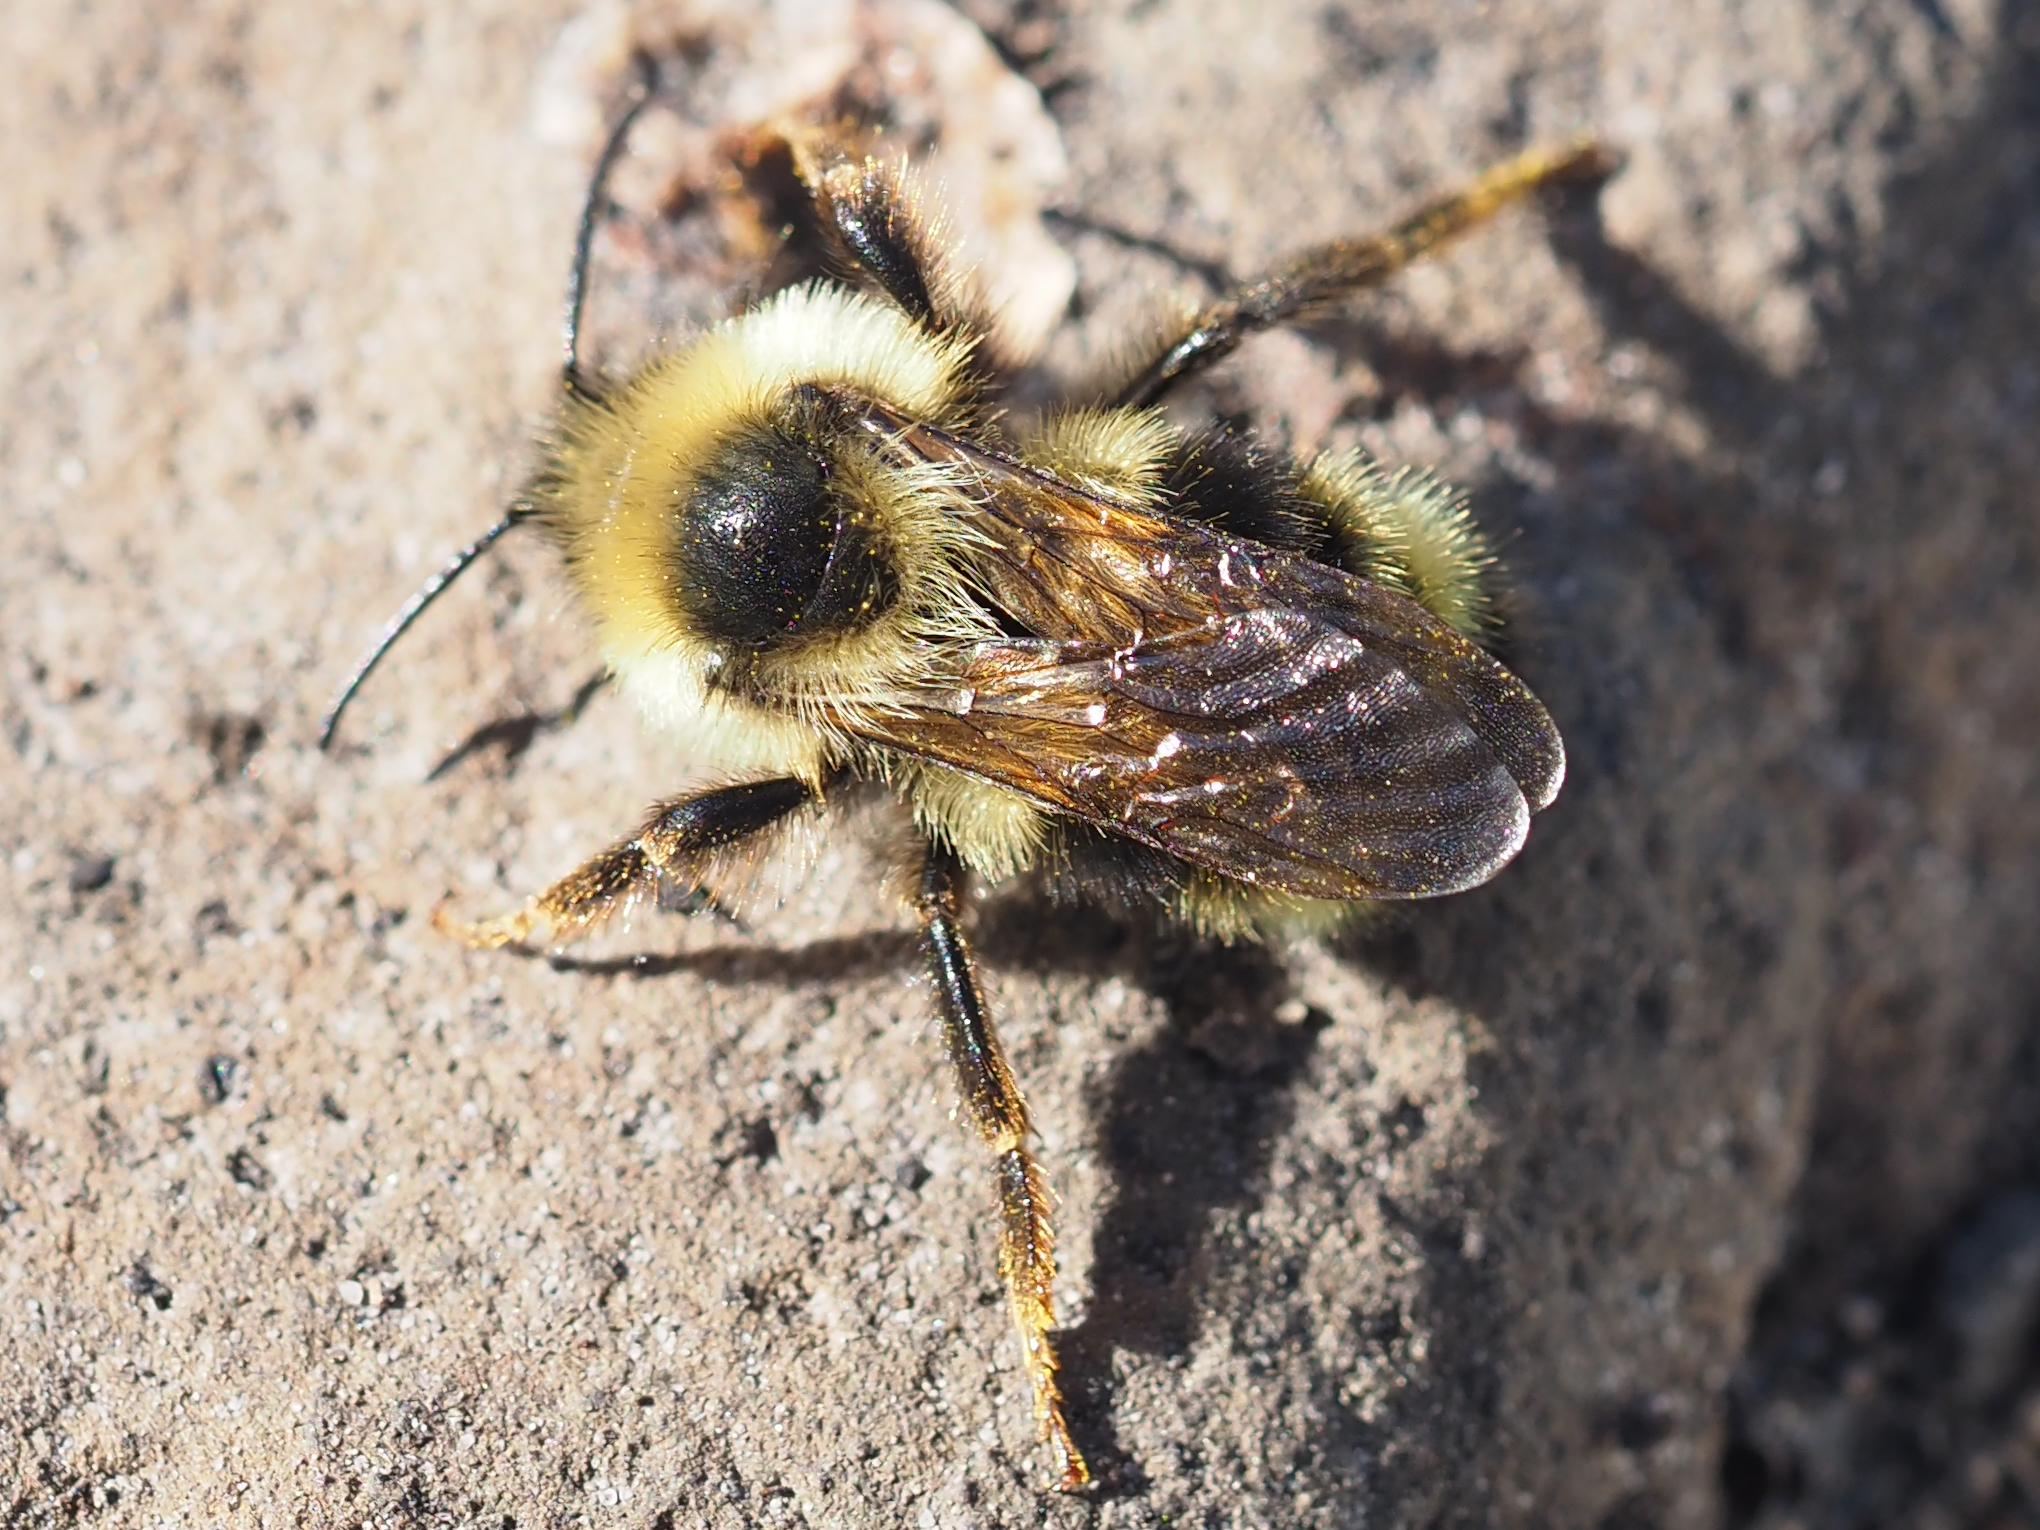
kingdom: Animalia
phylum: Arthropoda
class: Insecta
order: Hymenoptera
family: Apidae
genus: Bombus
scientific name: Bombus flavidus
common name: Fernald cuckoo bumble bee
